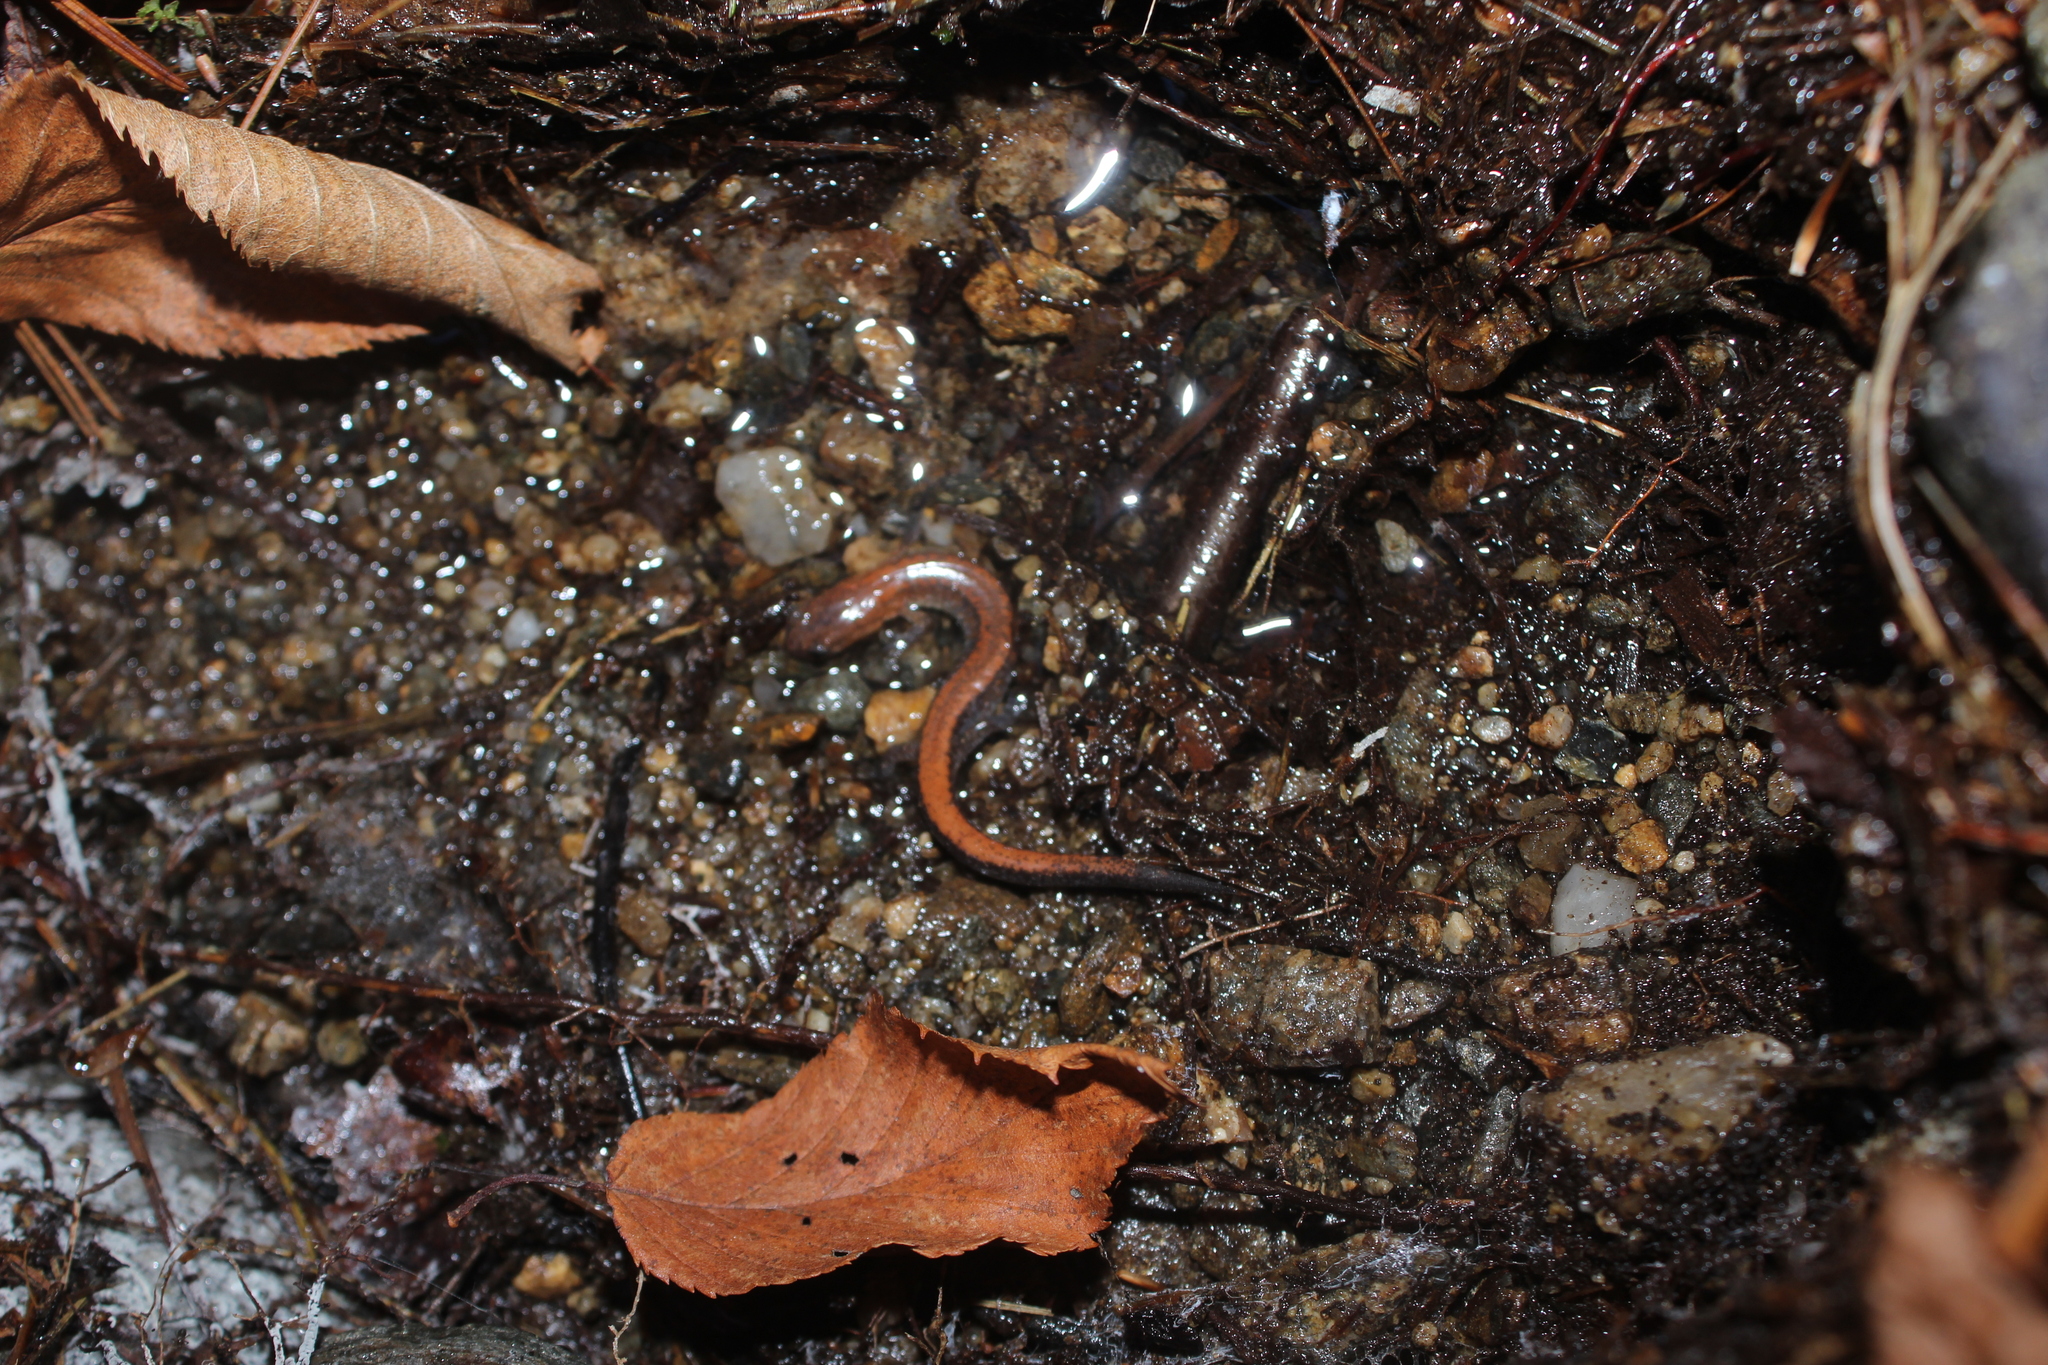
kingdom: Animalia
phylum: Chordata
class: Amphibia
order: Caudata
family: Plethodontidae
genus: Plethodon
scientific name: Plethodon cinereus
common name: Redback salamander
